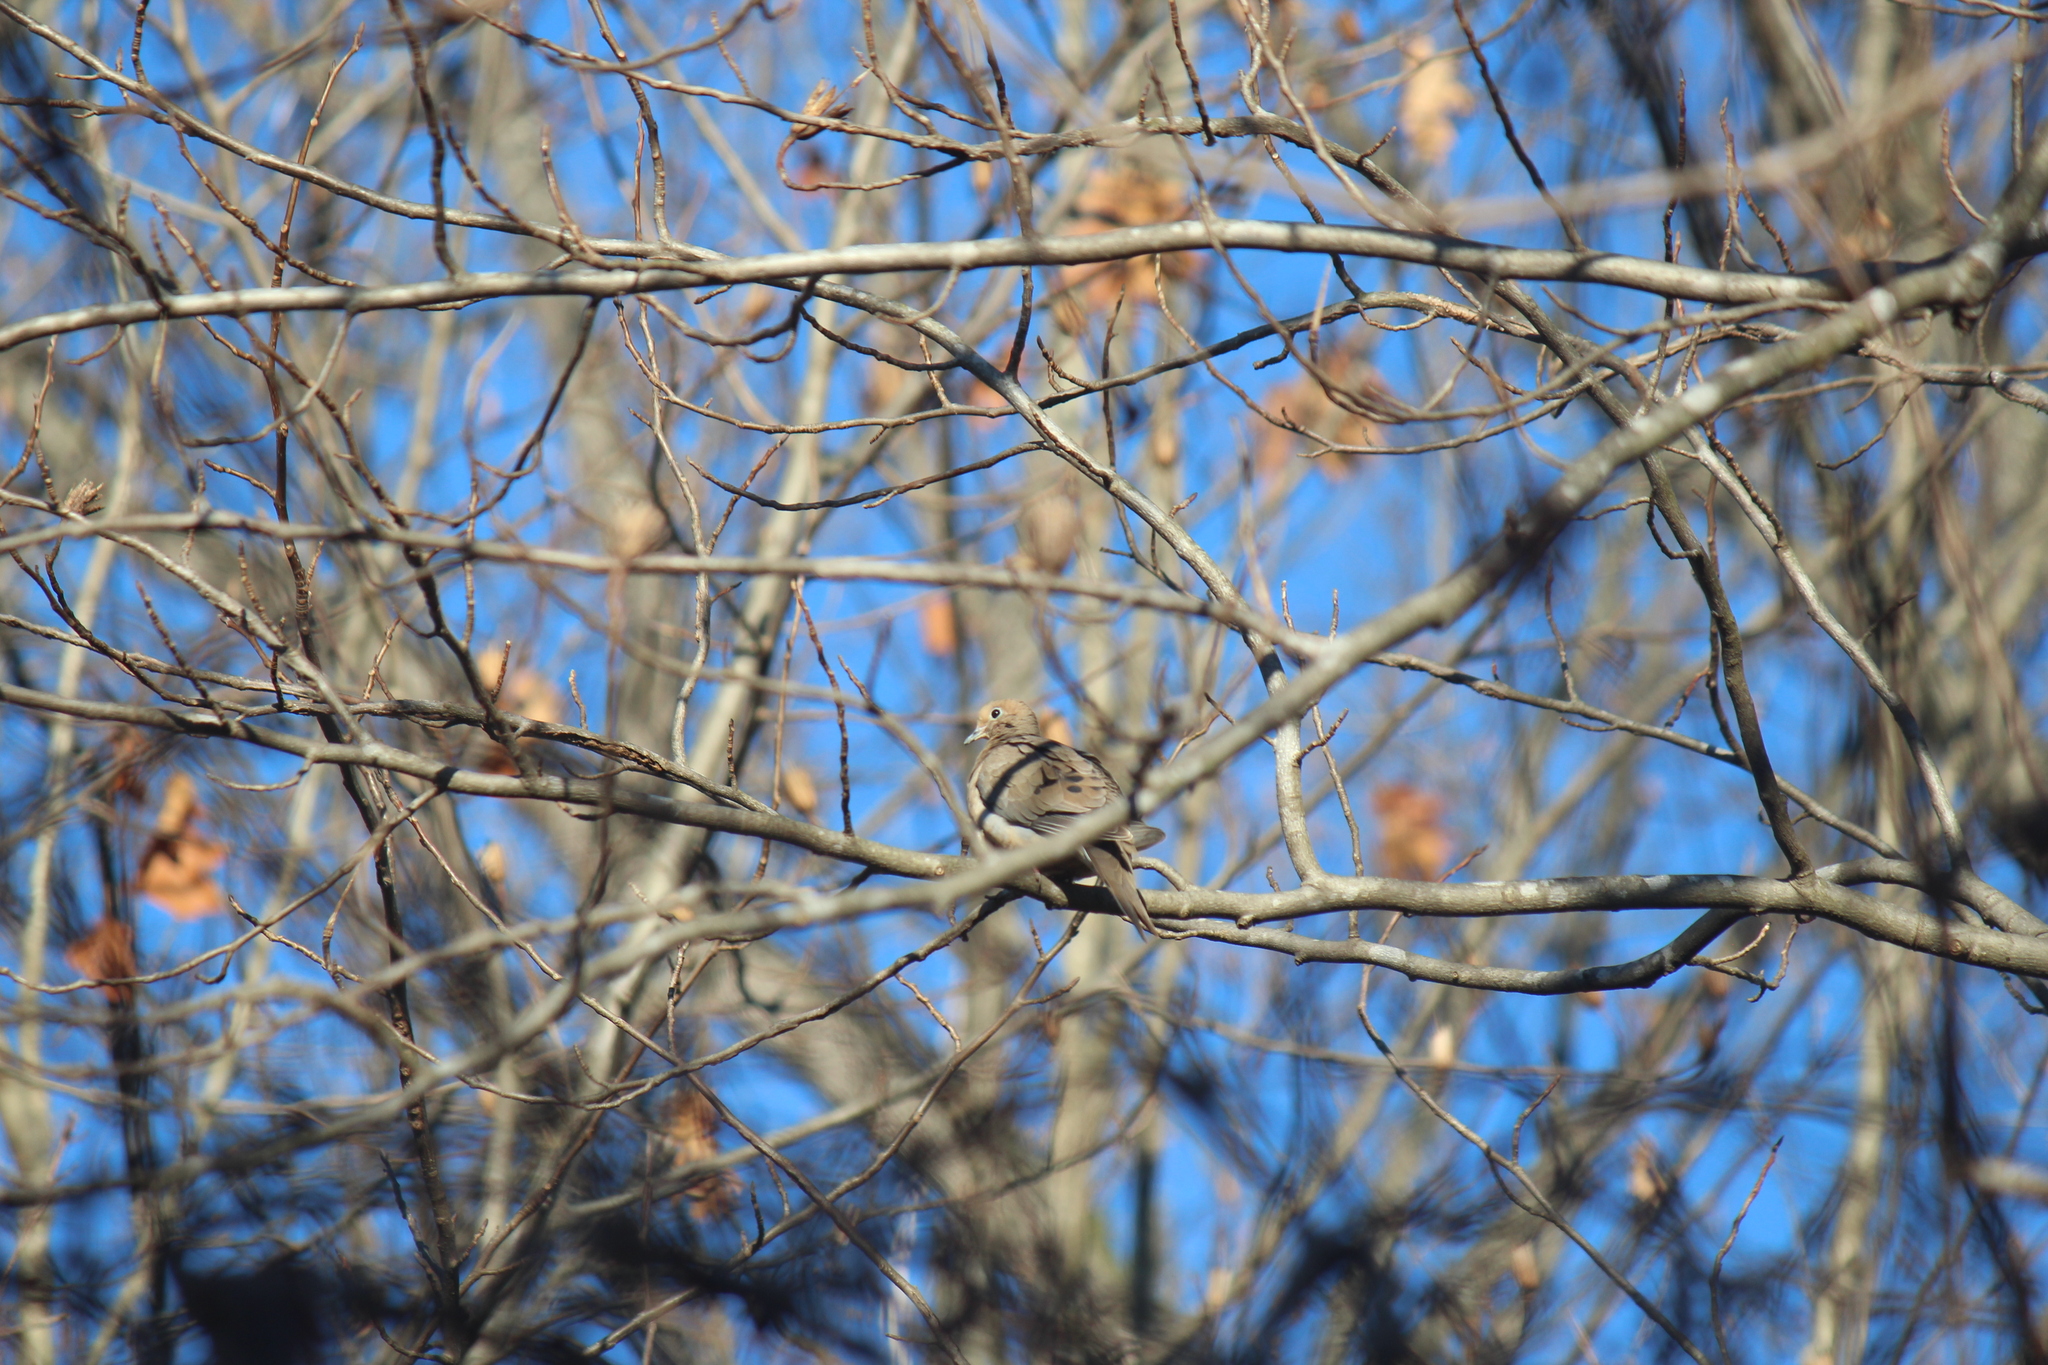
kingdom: Animalia
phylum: Chordata
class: Aves
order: Columbiformes
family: Columbidae
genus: Zenaida
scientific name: Zenaida macroura
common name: Mourning dove
